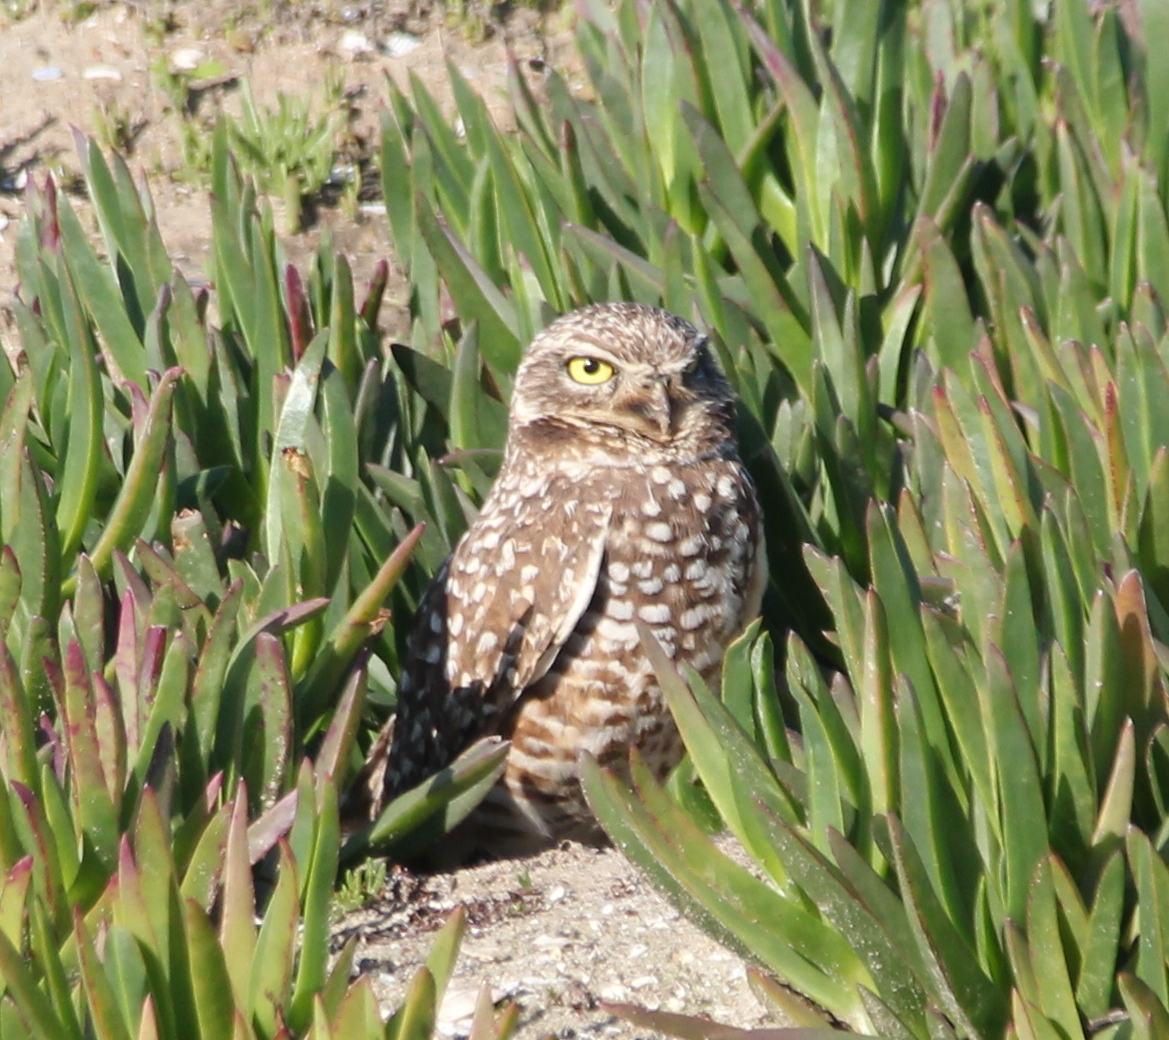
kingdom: Animalia
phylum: Chordata
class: Aves
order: Strigiformes
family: Strigidae
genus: Athene
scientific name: Athene cunicularia
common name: Burrowing owl
